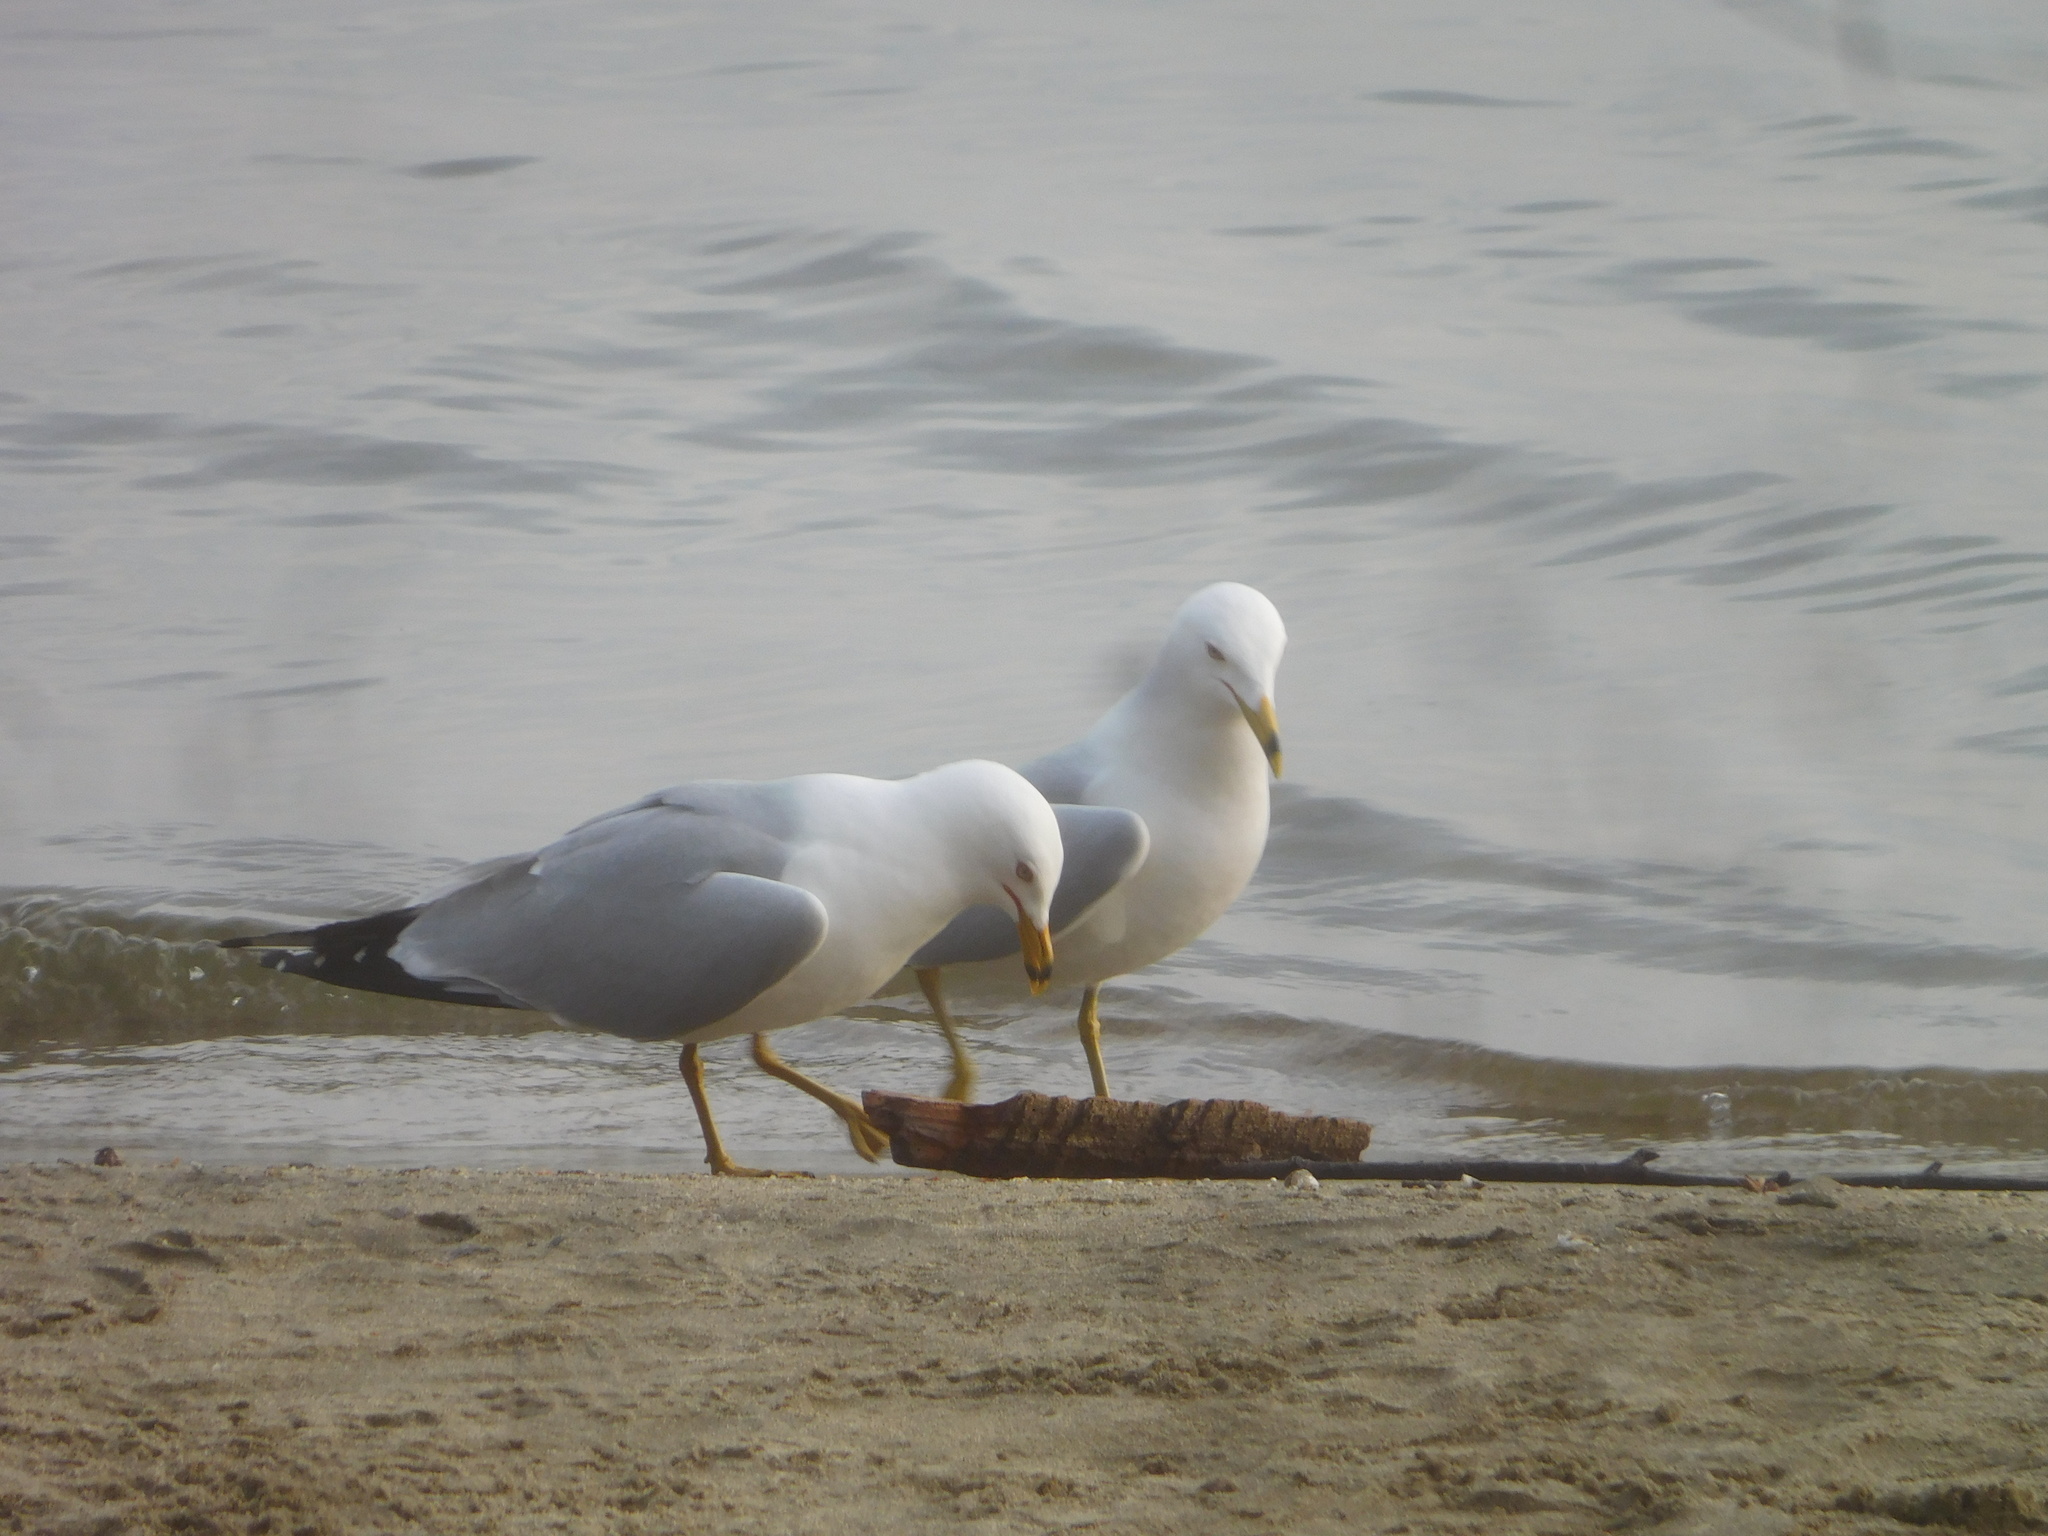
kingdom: Animalia
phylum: Chordata
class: Aves
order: Charadriiformes
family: Laridae
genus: Larus
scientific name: Larus delawarensis
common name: Ring-billed gull
